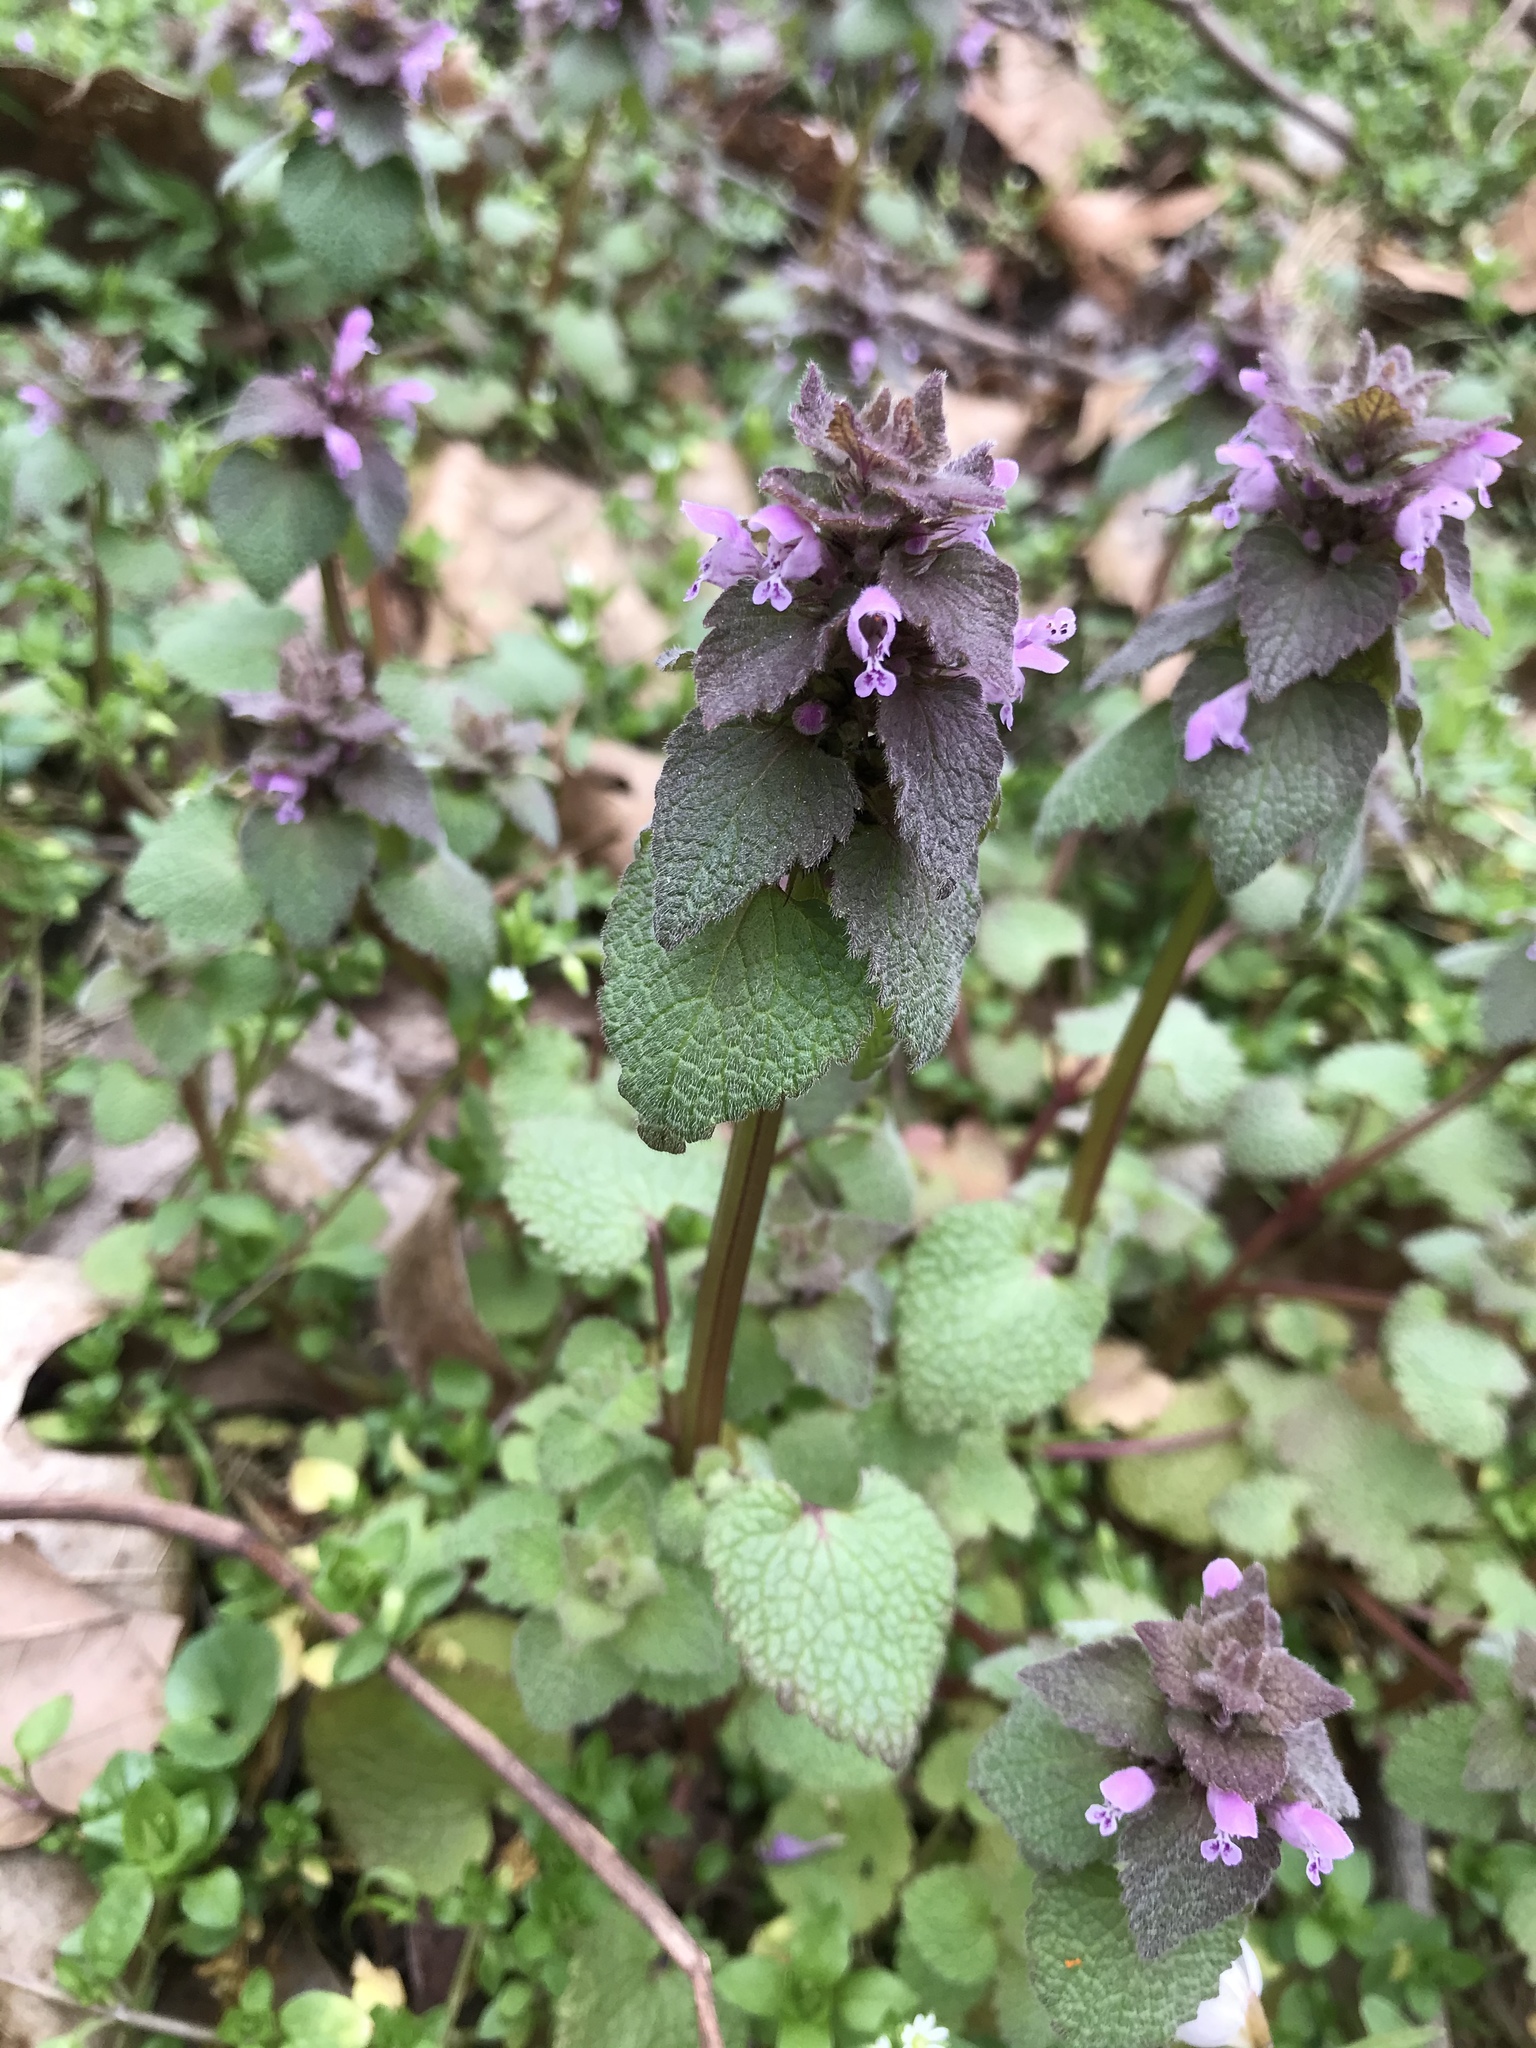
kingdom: Plantae
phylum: Tracheophyta
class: Magnoliopsida
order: Lamiales
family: Lamiaceae
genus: Lamium
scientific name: Lamium purpureum
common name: Red dead-nettle
